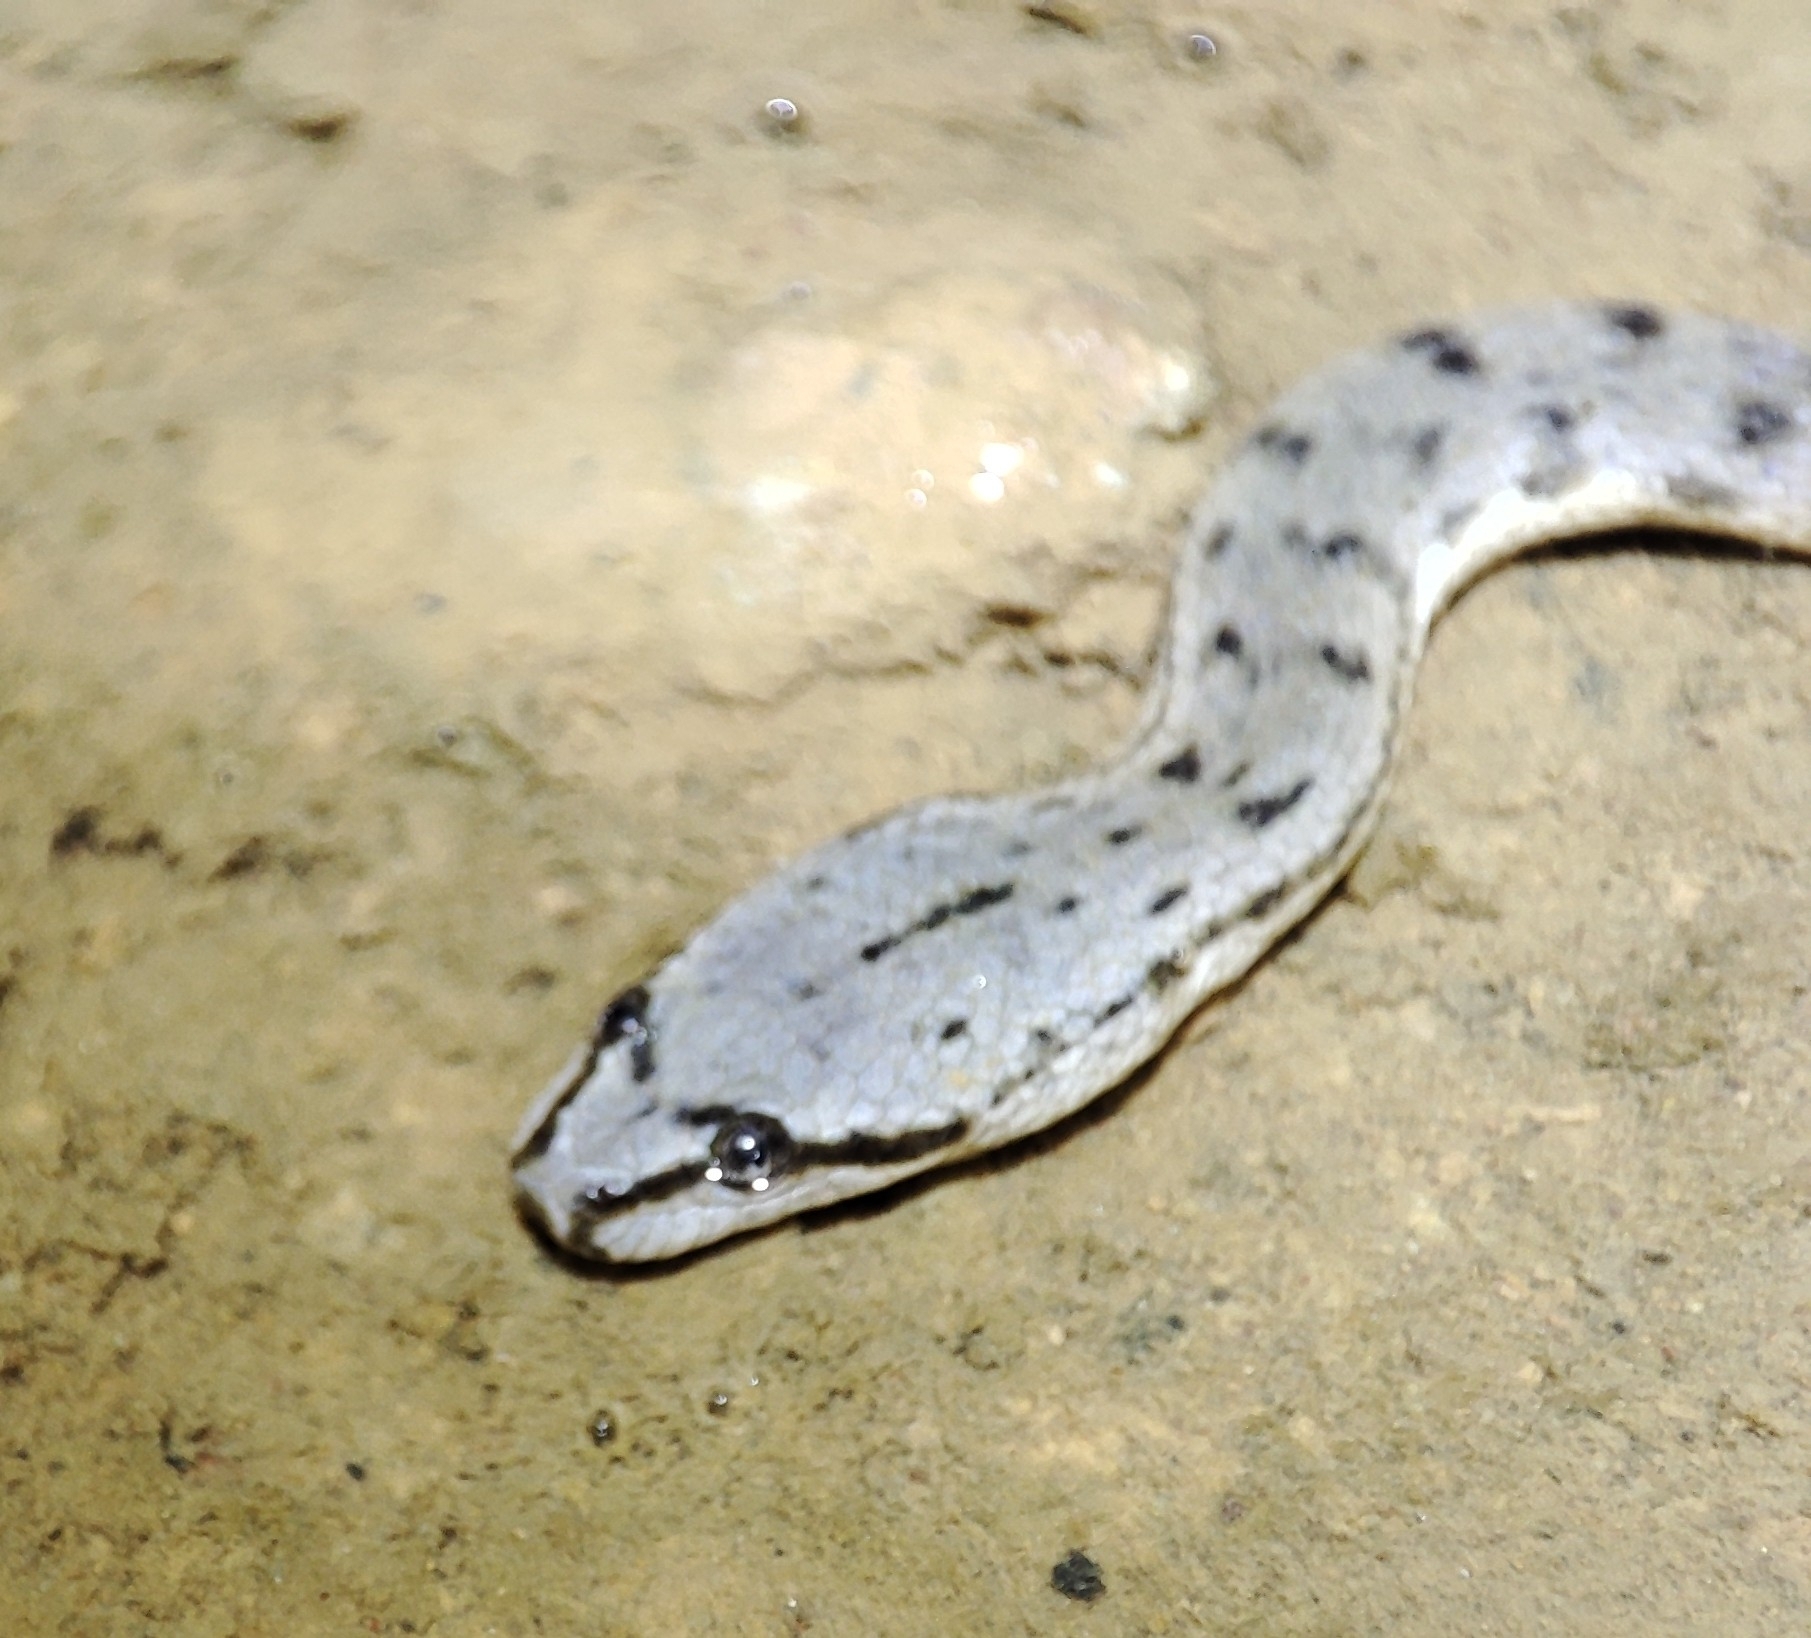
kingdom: Animalia
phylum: Chordata
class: Squamata
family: Homalopsidae
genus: Cerberus
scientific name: Cerberus schneiderii
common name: Southeast asian bockadam
